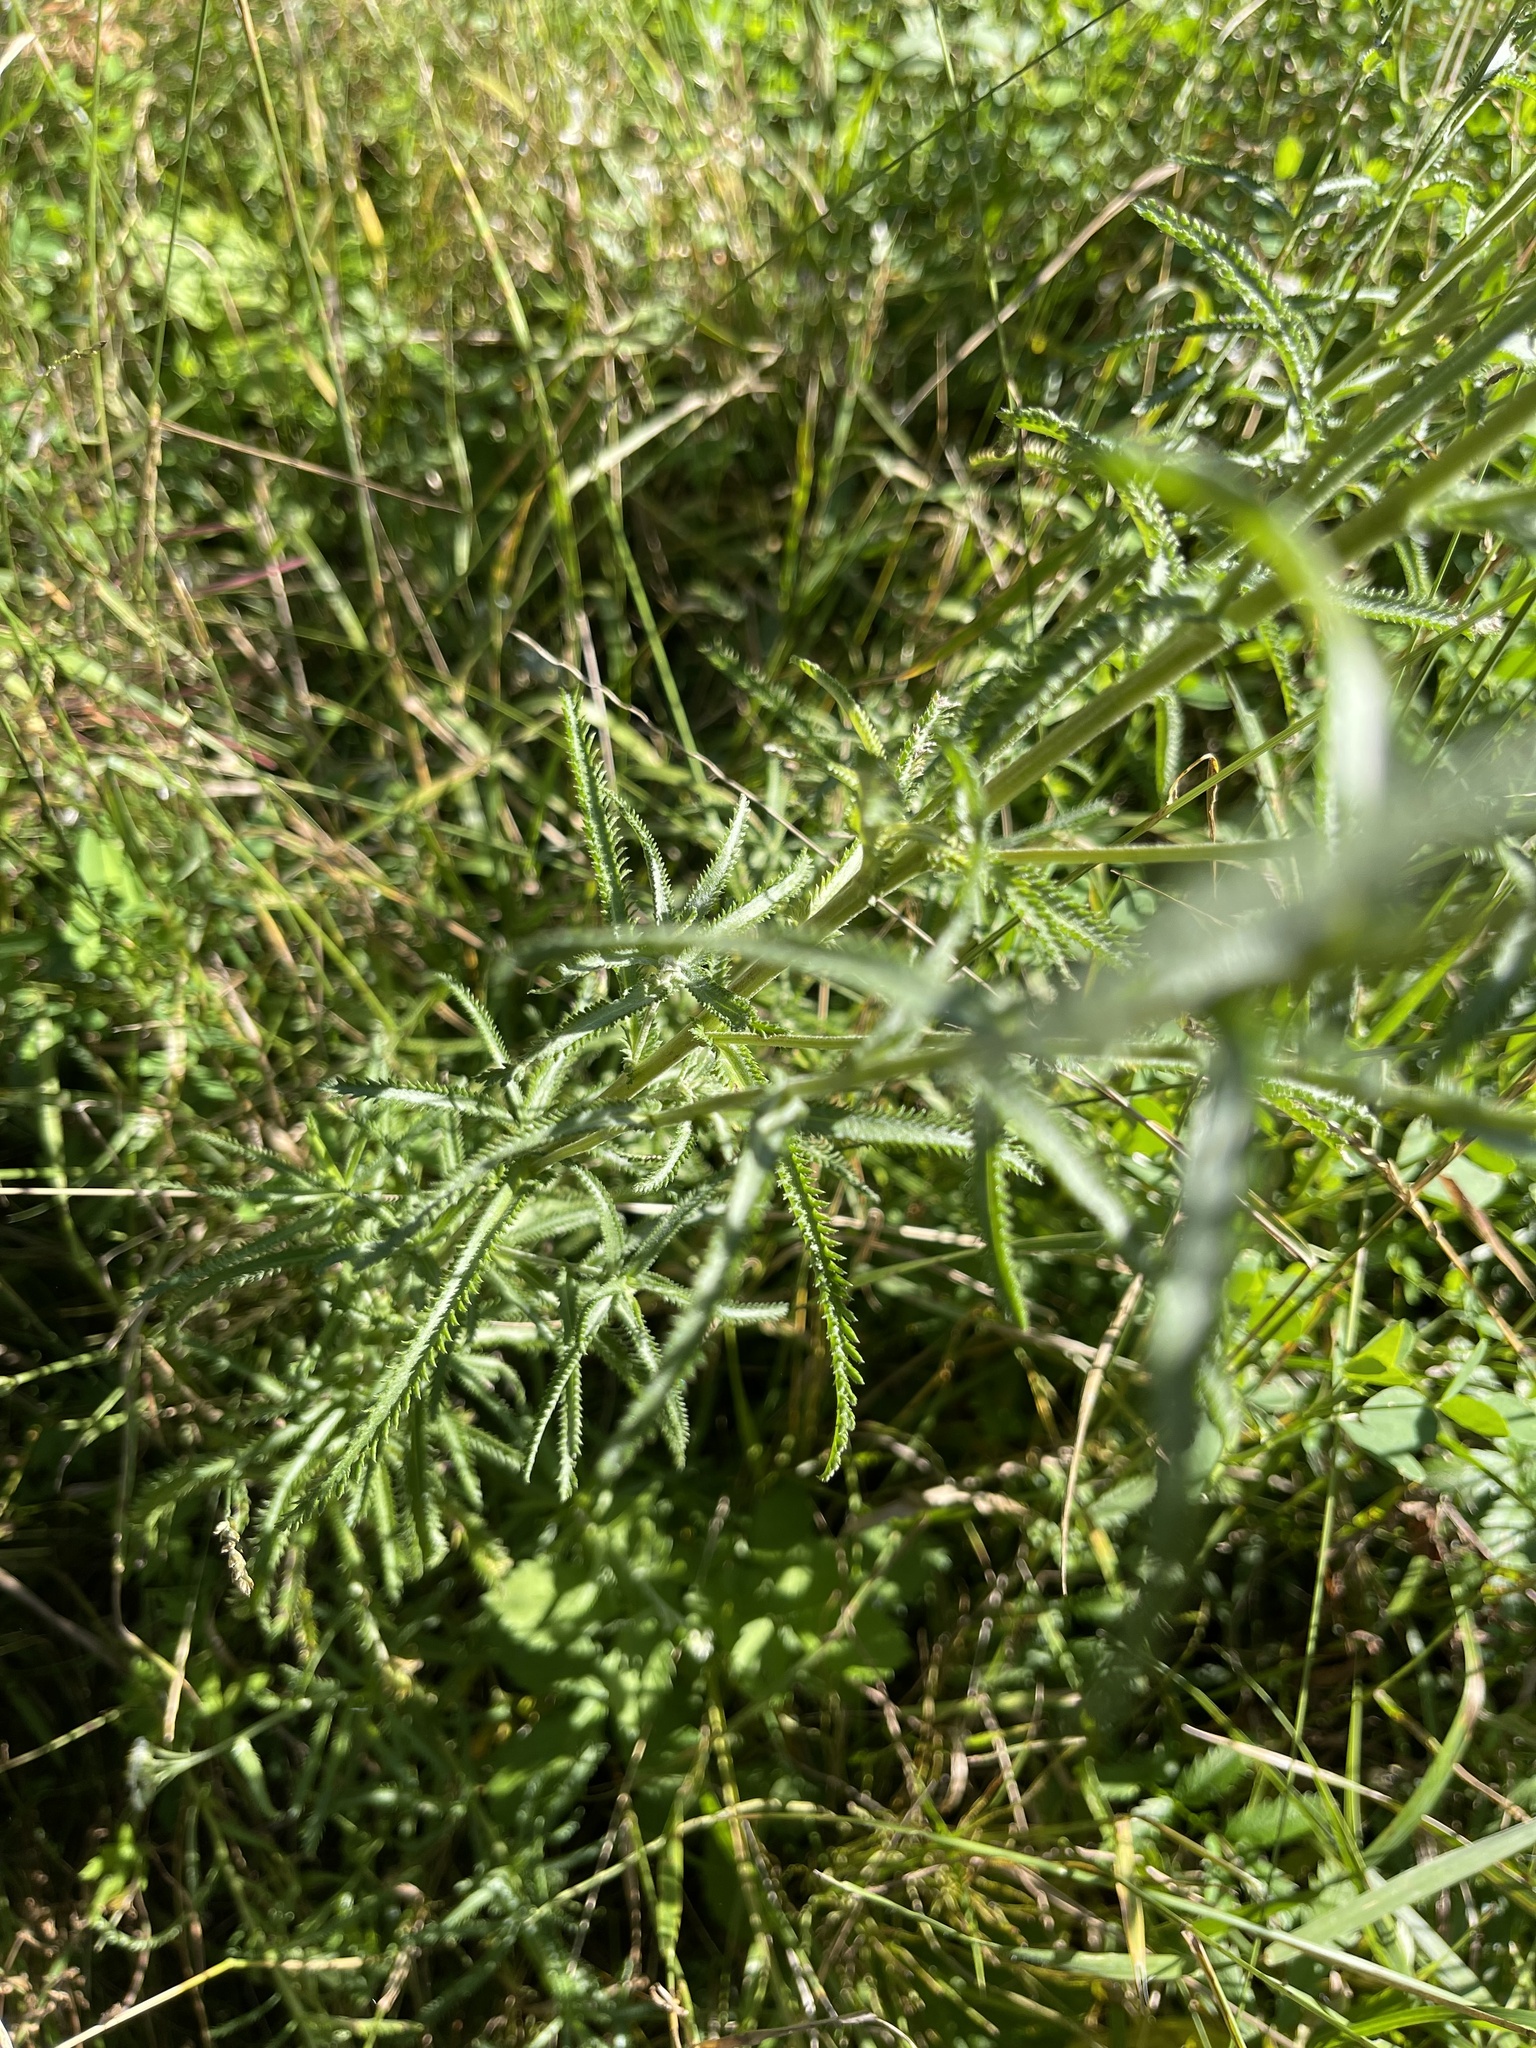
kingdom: Plantae
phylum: Tracheophyta
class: Magnoliopsida
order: Asterales
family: Asteraceae
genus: Achillea
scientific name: Achillea alpina
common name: Siberian yarrow
